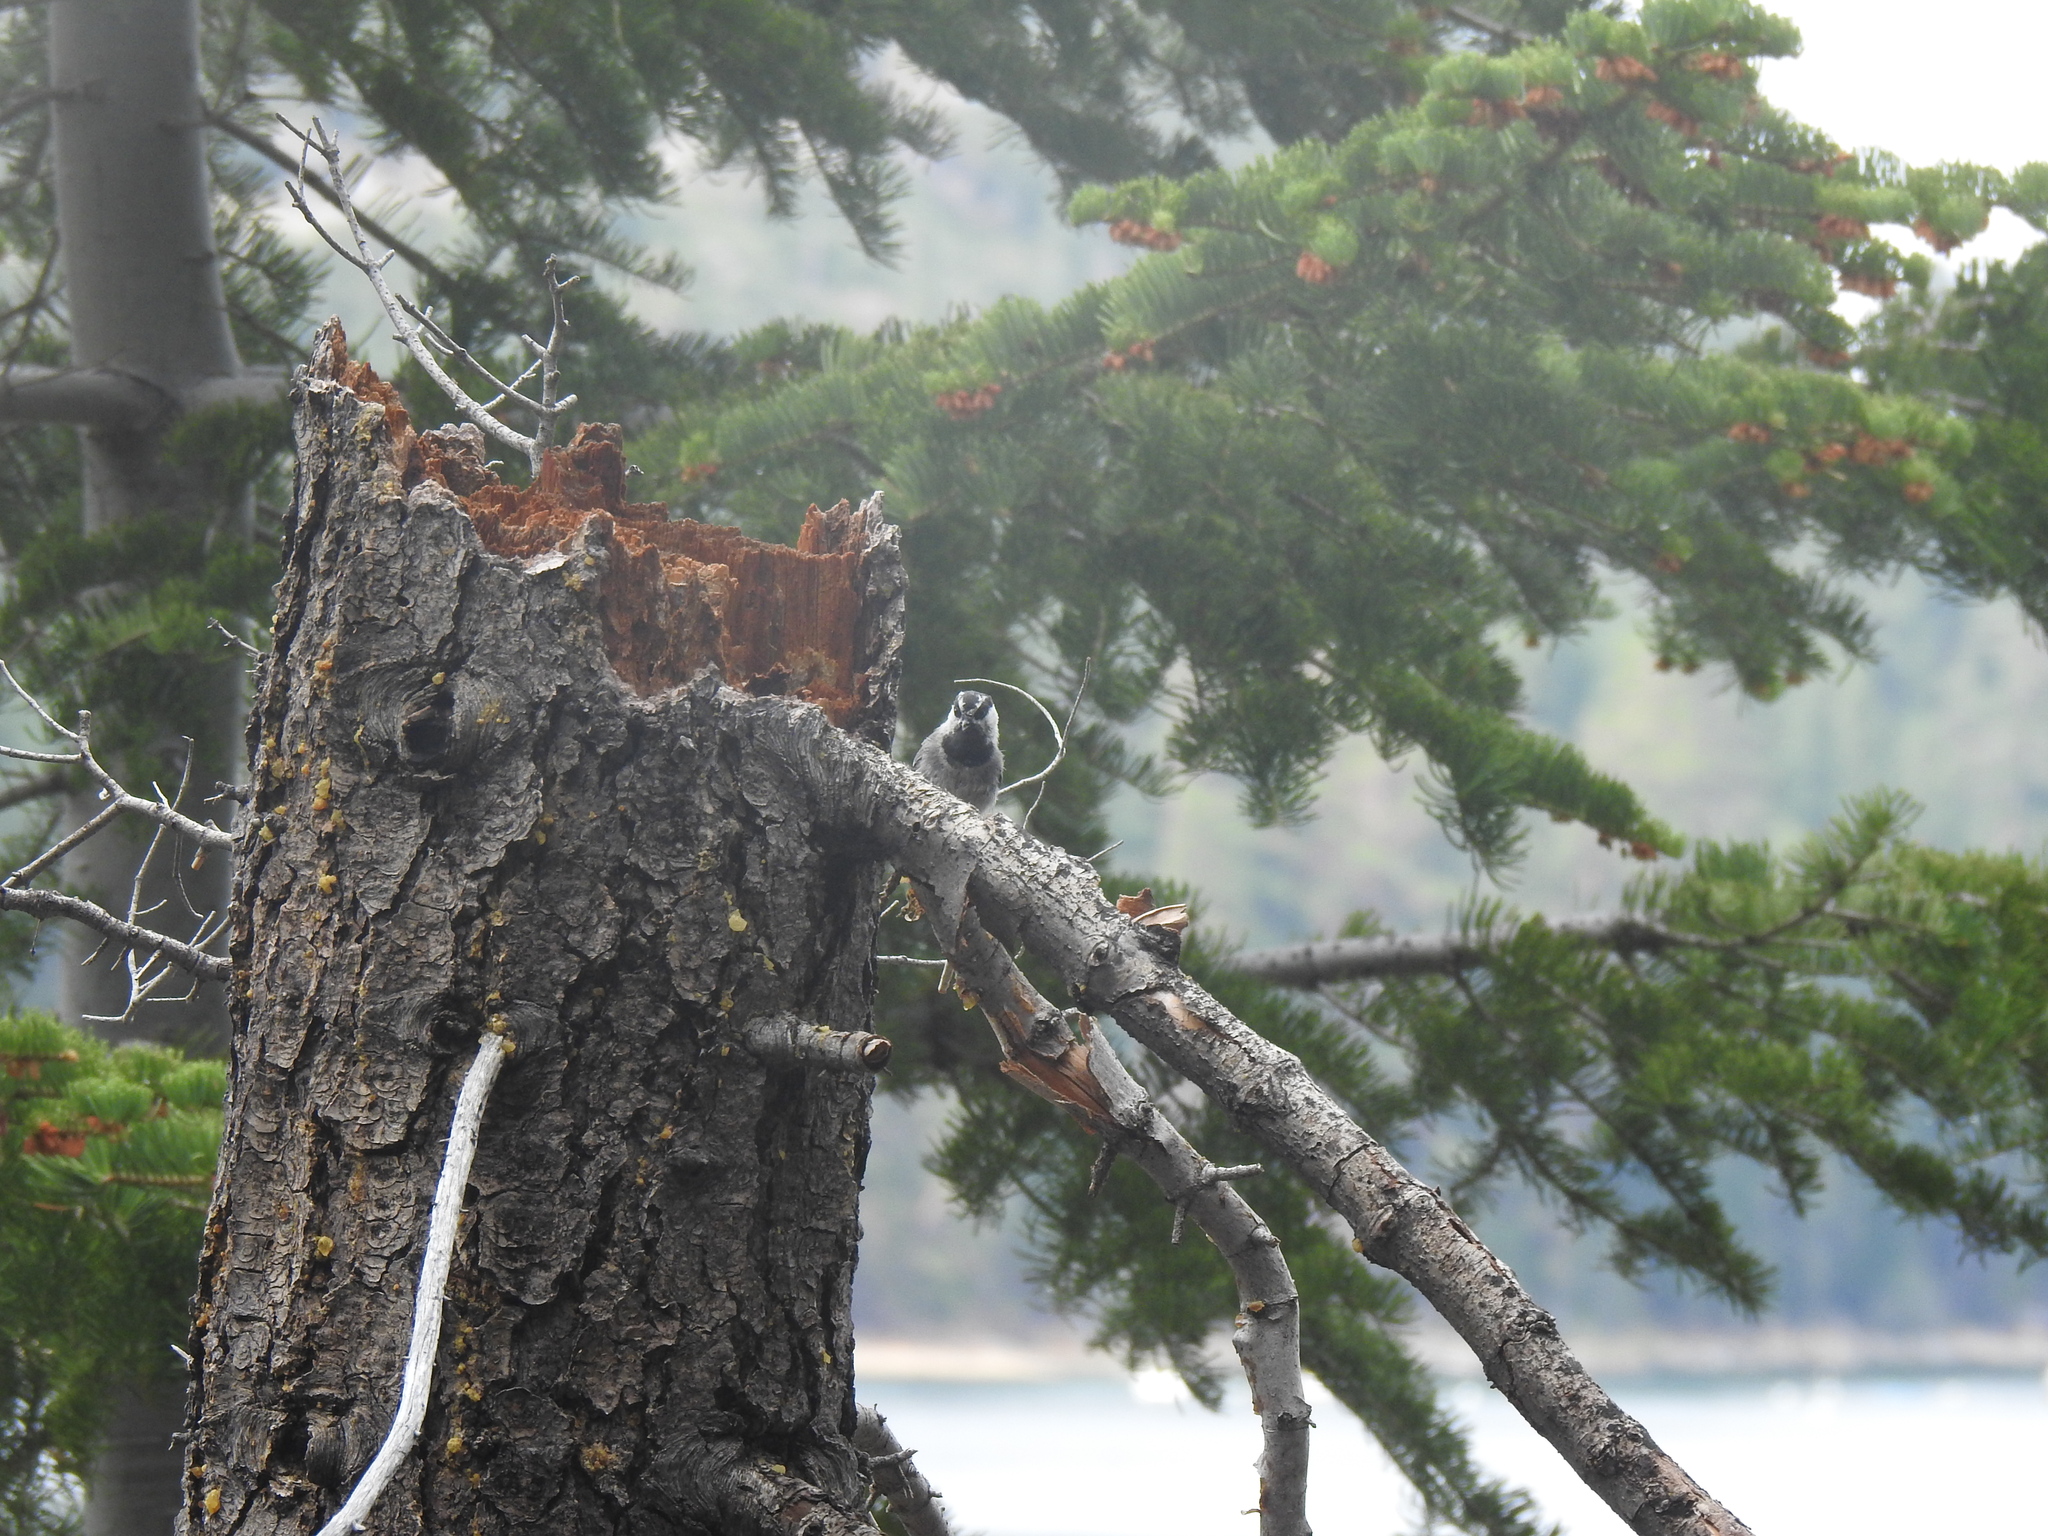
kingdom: Animalia
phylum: Chordata
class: Aves
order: Passeriformes
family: Paridae
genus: Poecile
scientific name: Poecile gambeli
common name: Mountain chickadee
